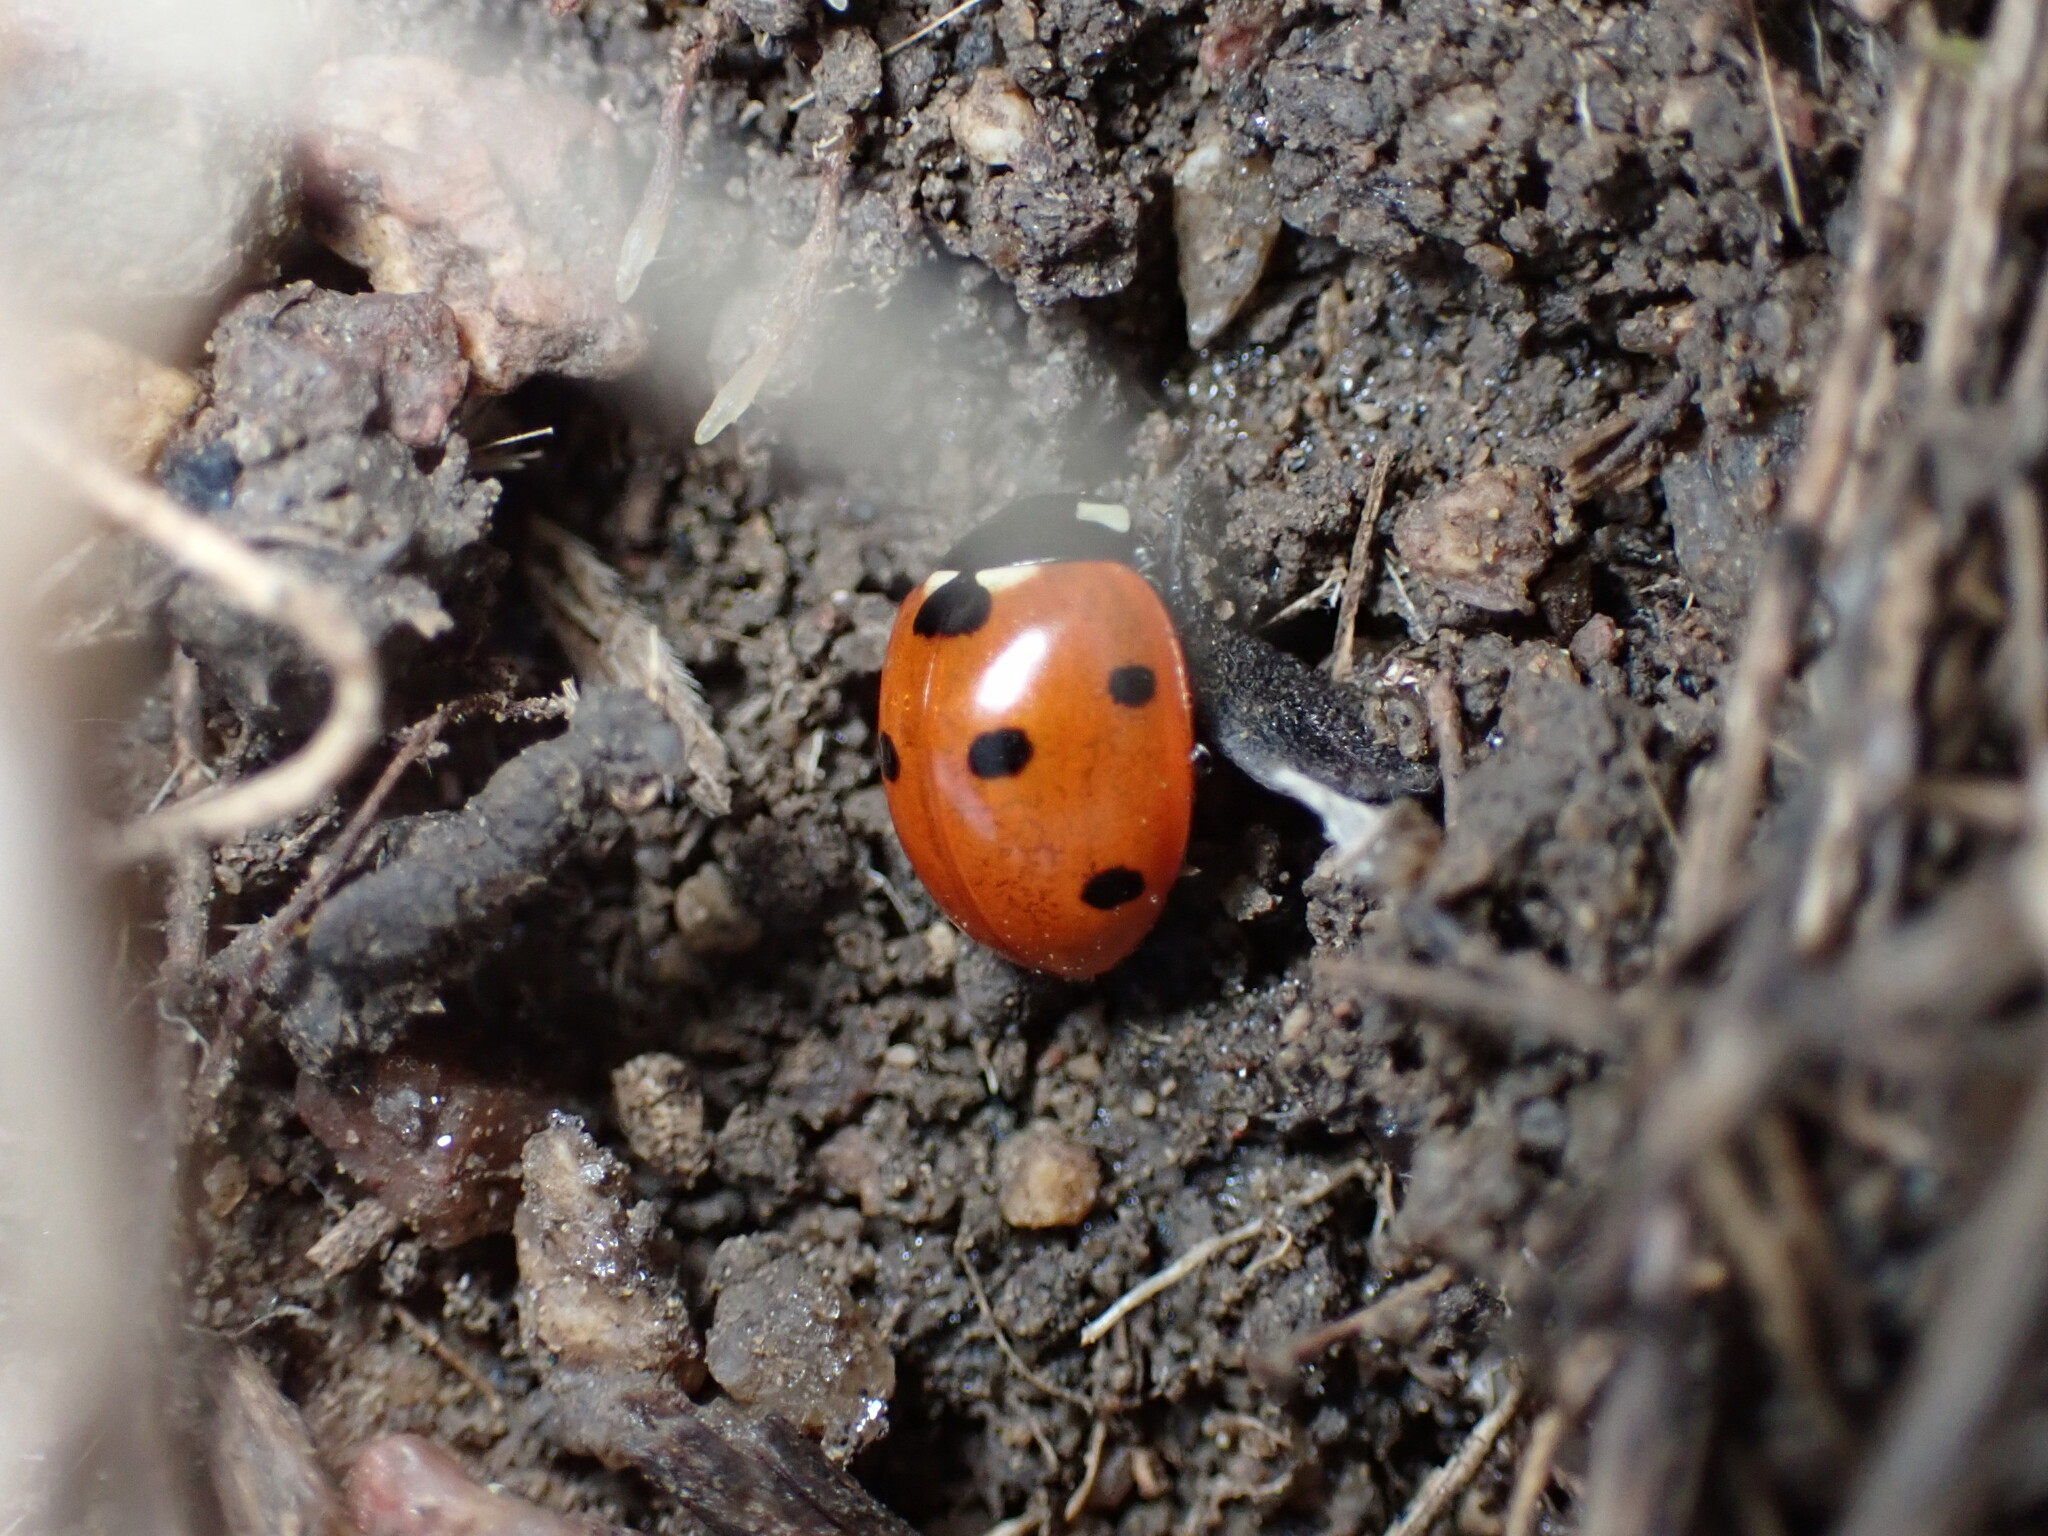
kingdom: Animalia
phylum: Arthropoda
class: Insecta
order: Coleoptera
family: Coccinellidae
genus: Coccinella
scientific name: Coccinella septempunctata
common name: Sevenspotted lady beetle
